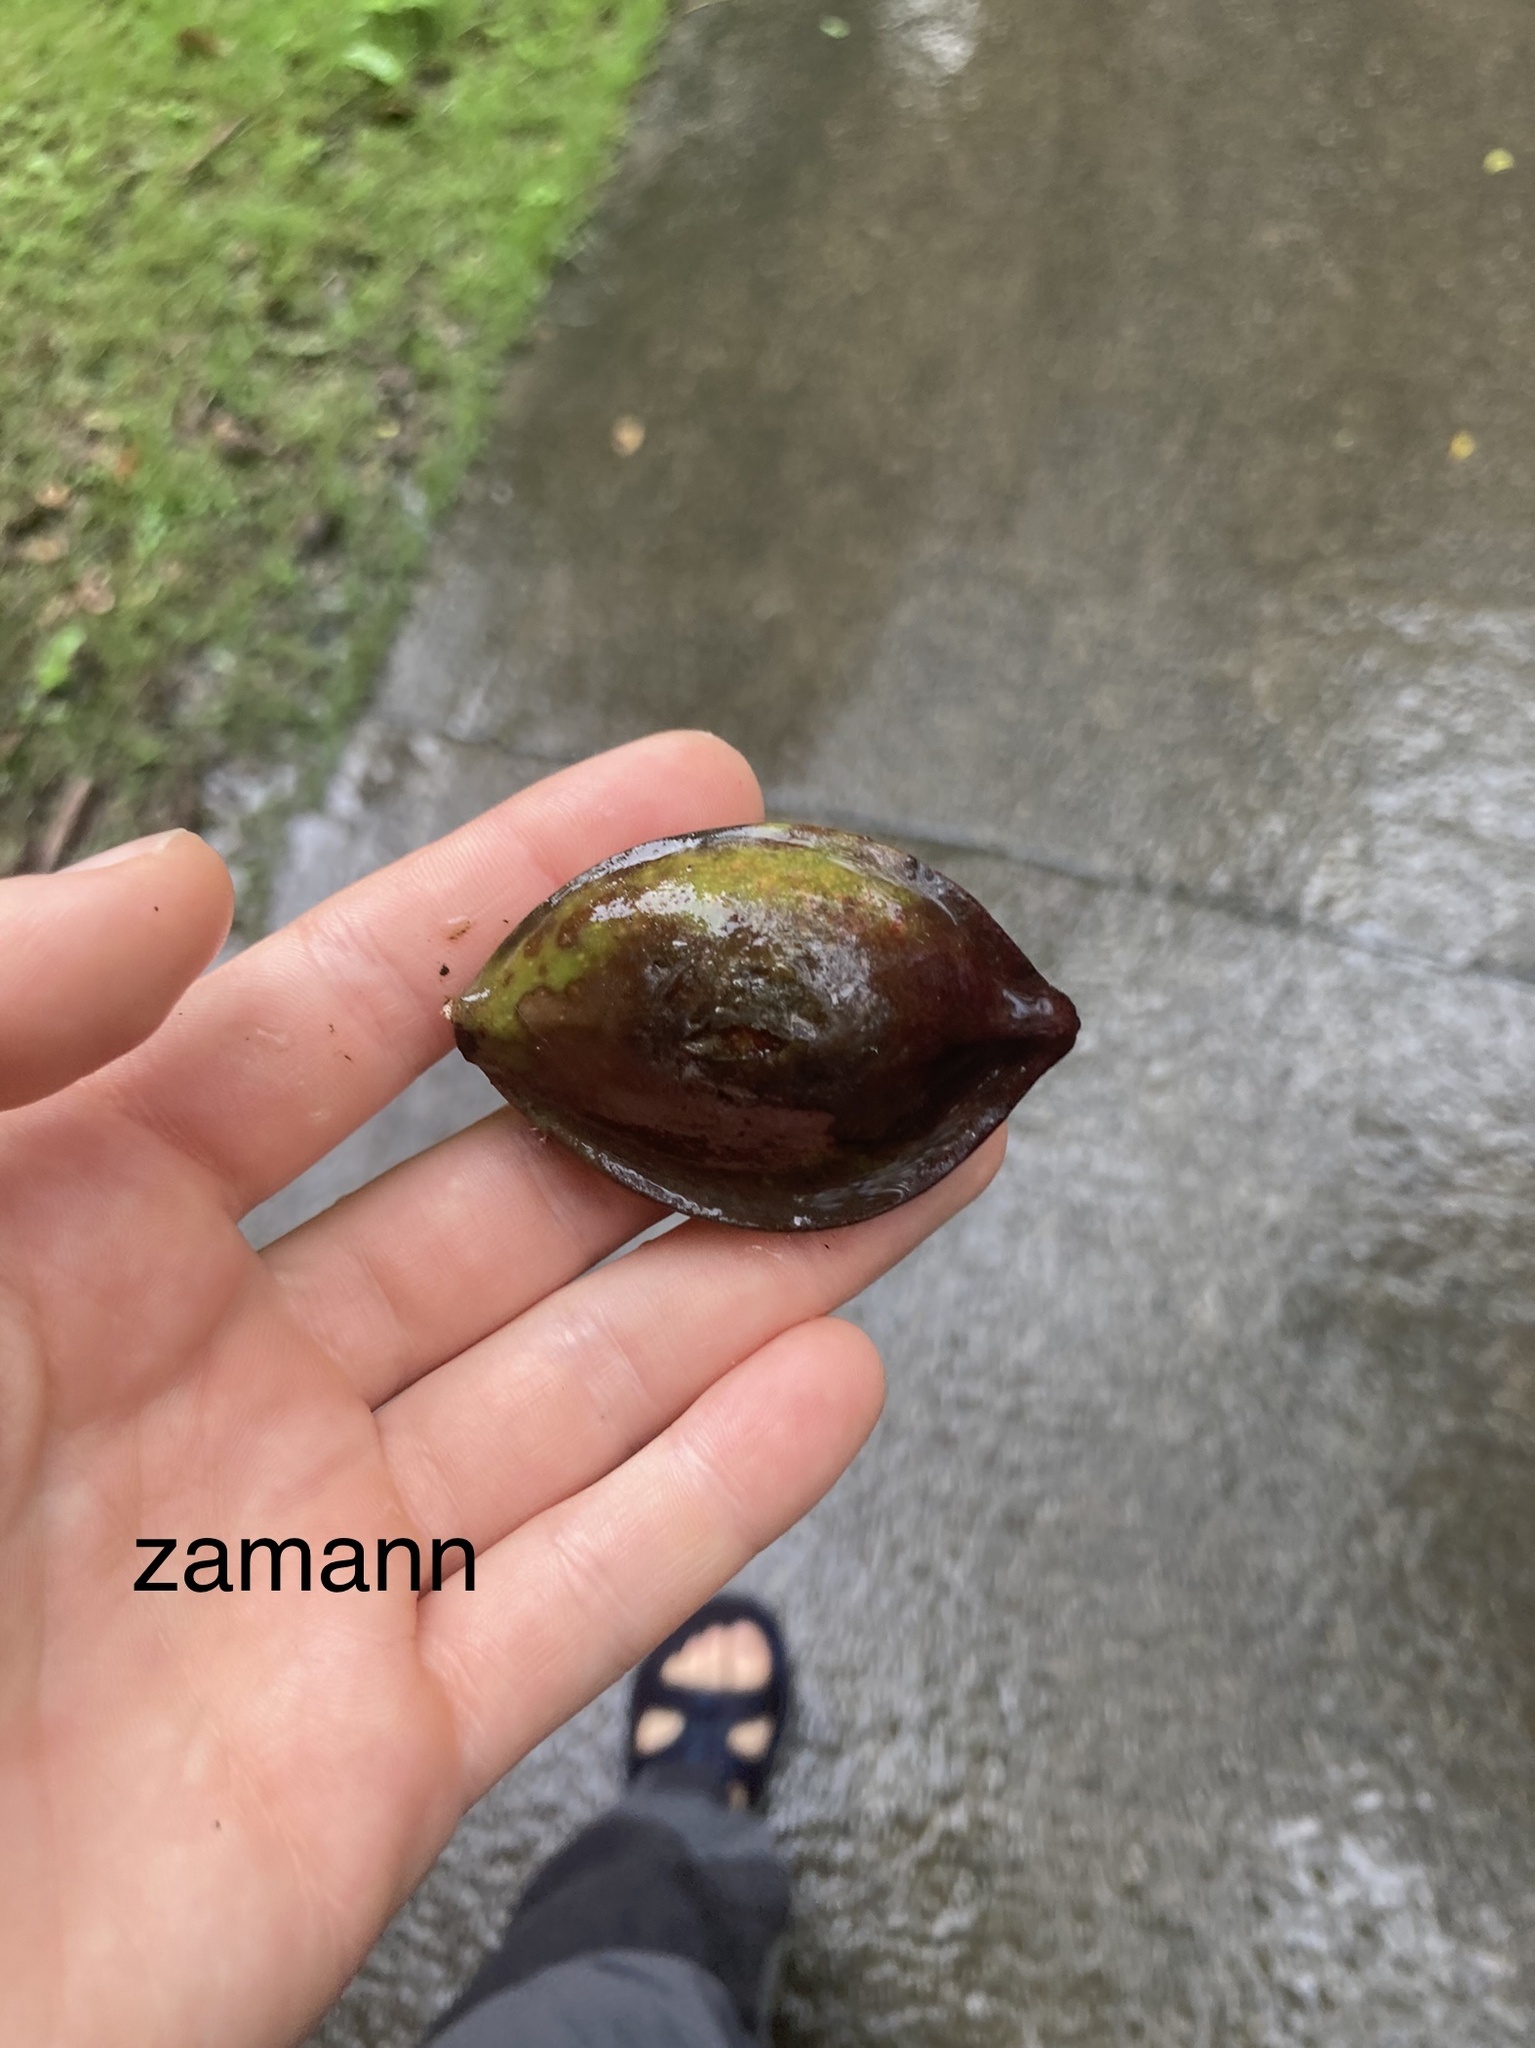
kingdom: Plantae
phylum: Tracheophyta
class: Magnoliopsida
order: Myrtales
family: Combretaceae
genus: Terminalia
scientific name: Terminalia catappa
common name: Tropical almond
